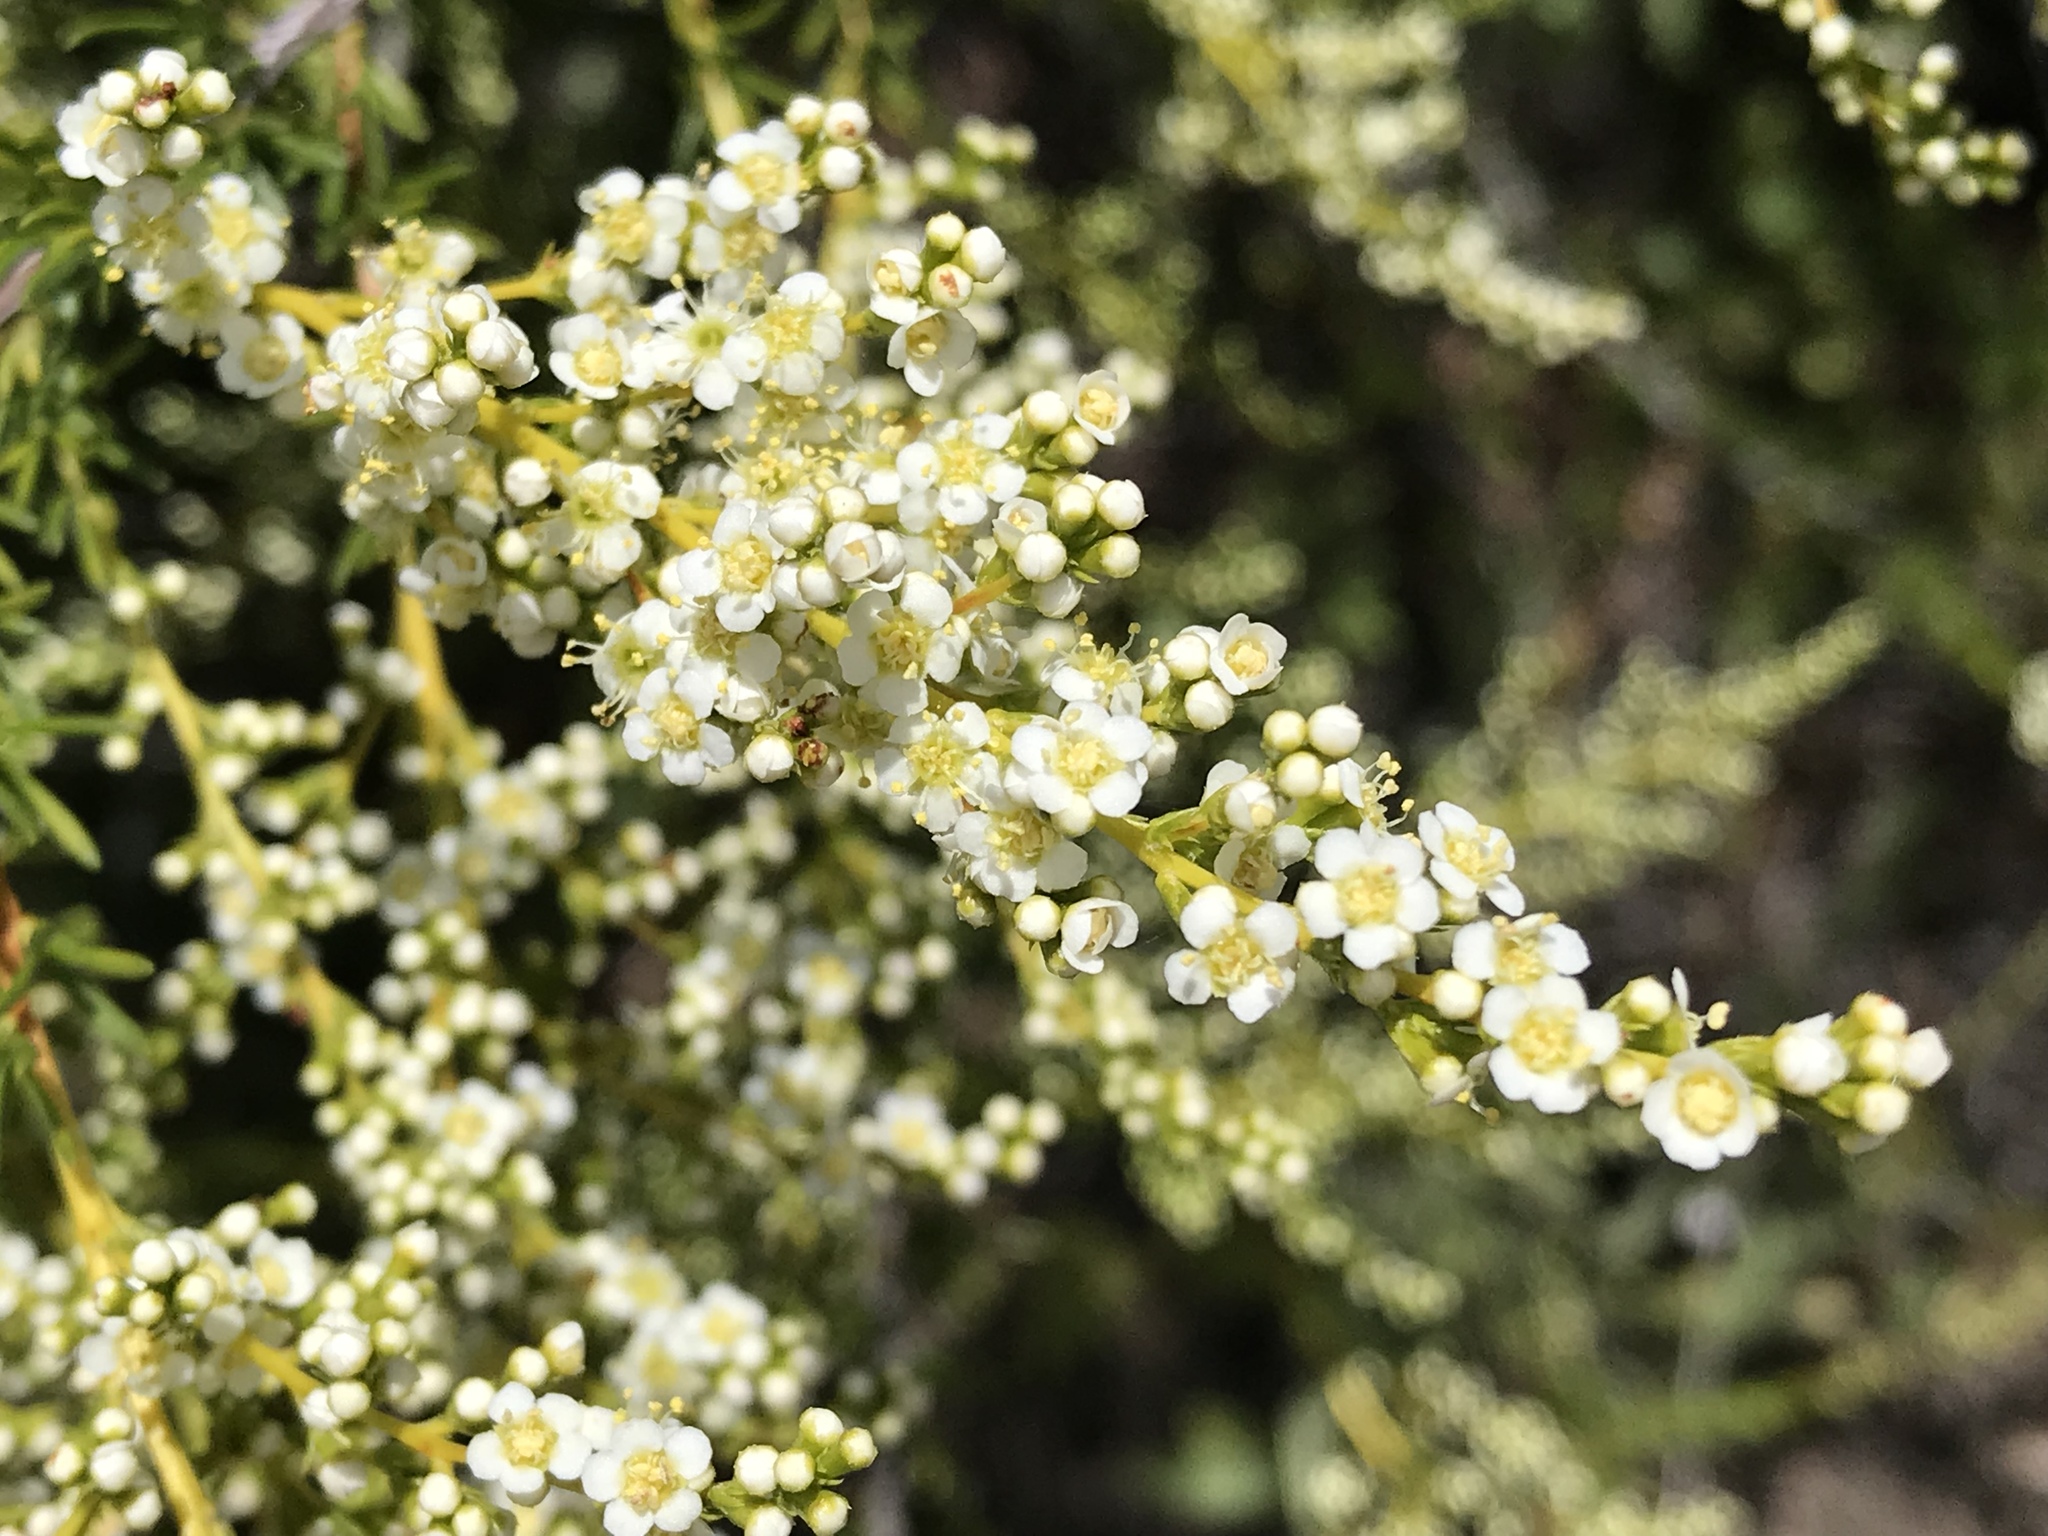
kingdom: Plantae
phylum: Tracheophyta
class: Magnoliopsida
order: Rosales
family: Rosaceae
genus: Adenostoma
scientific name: Adenostoma fasciculatum
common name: Chamise
